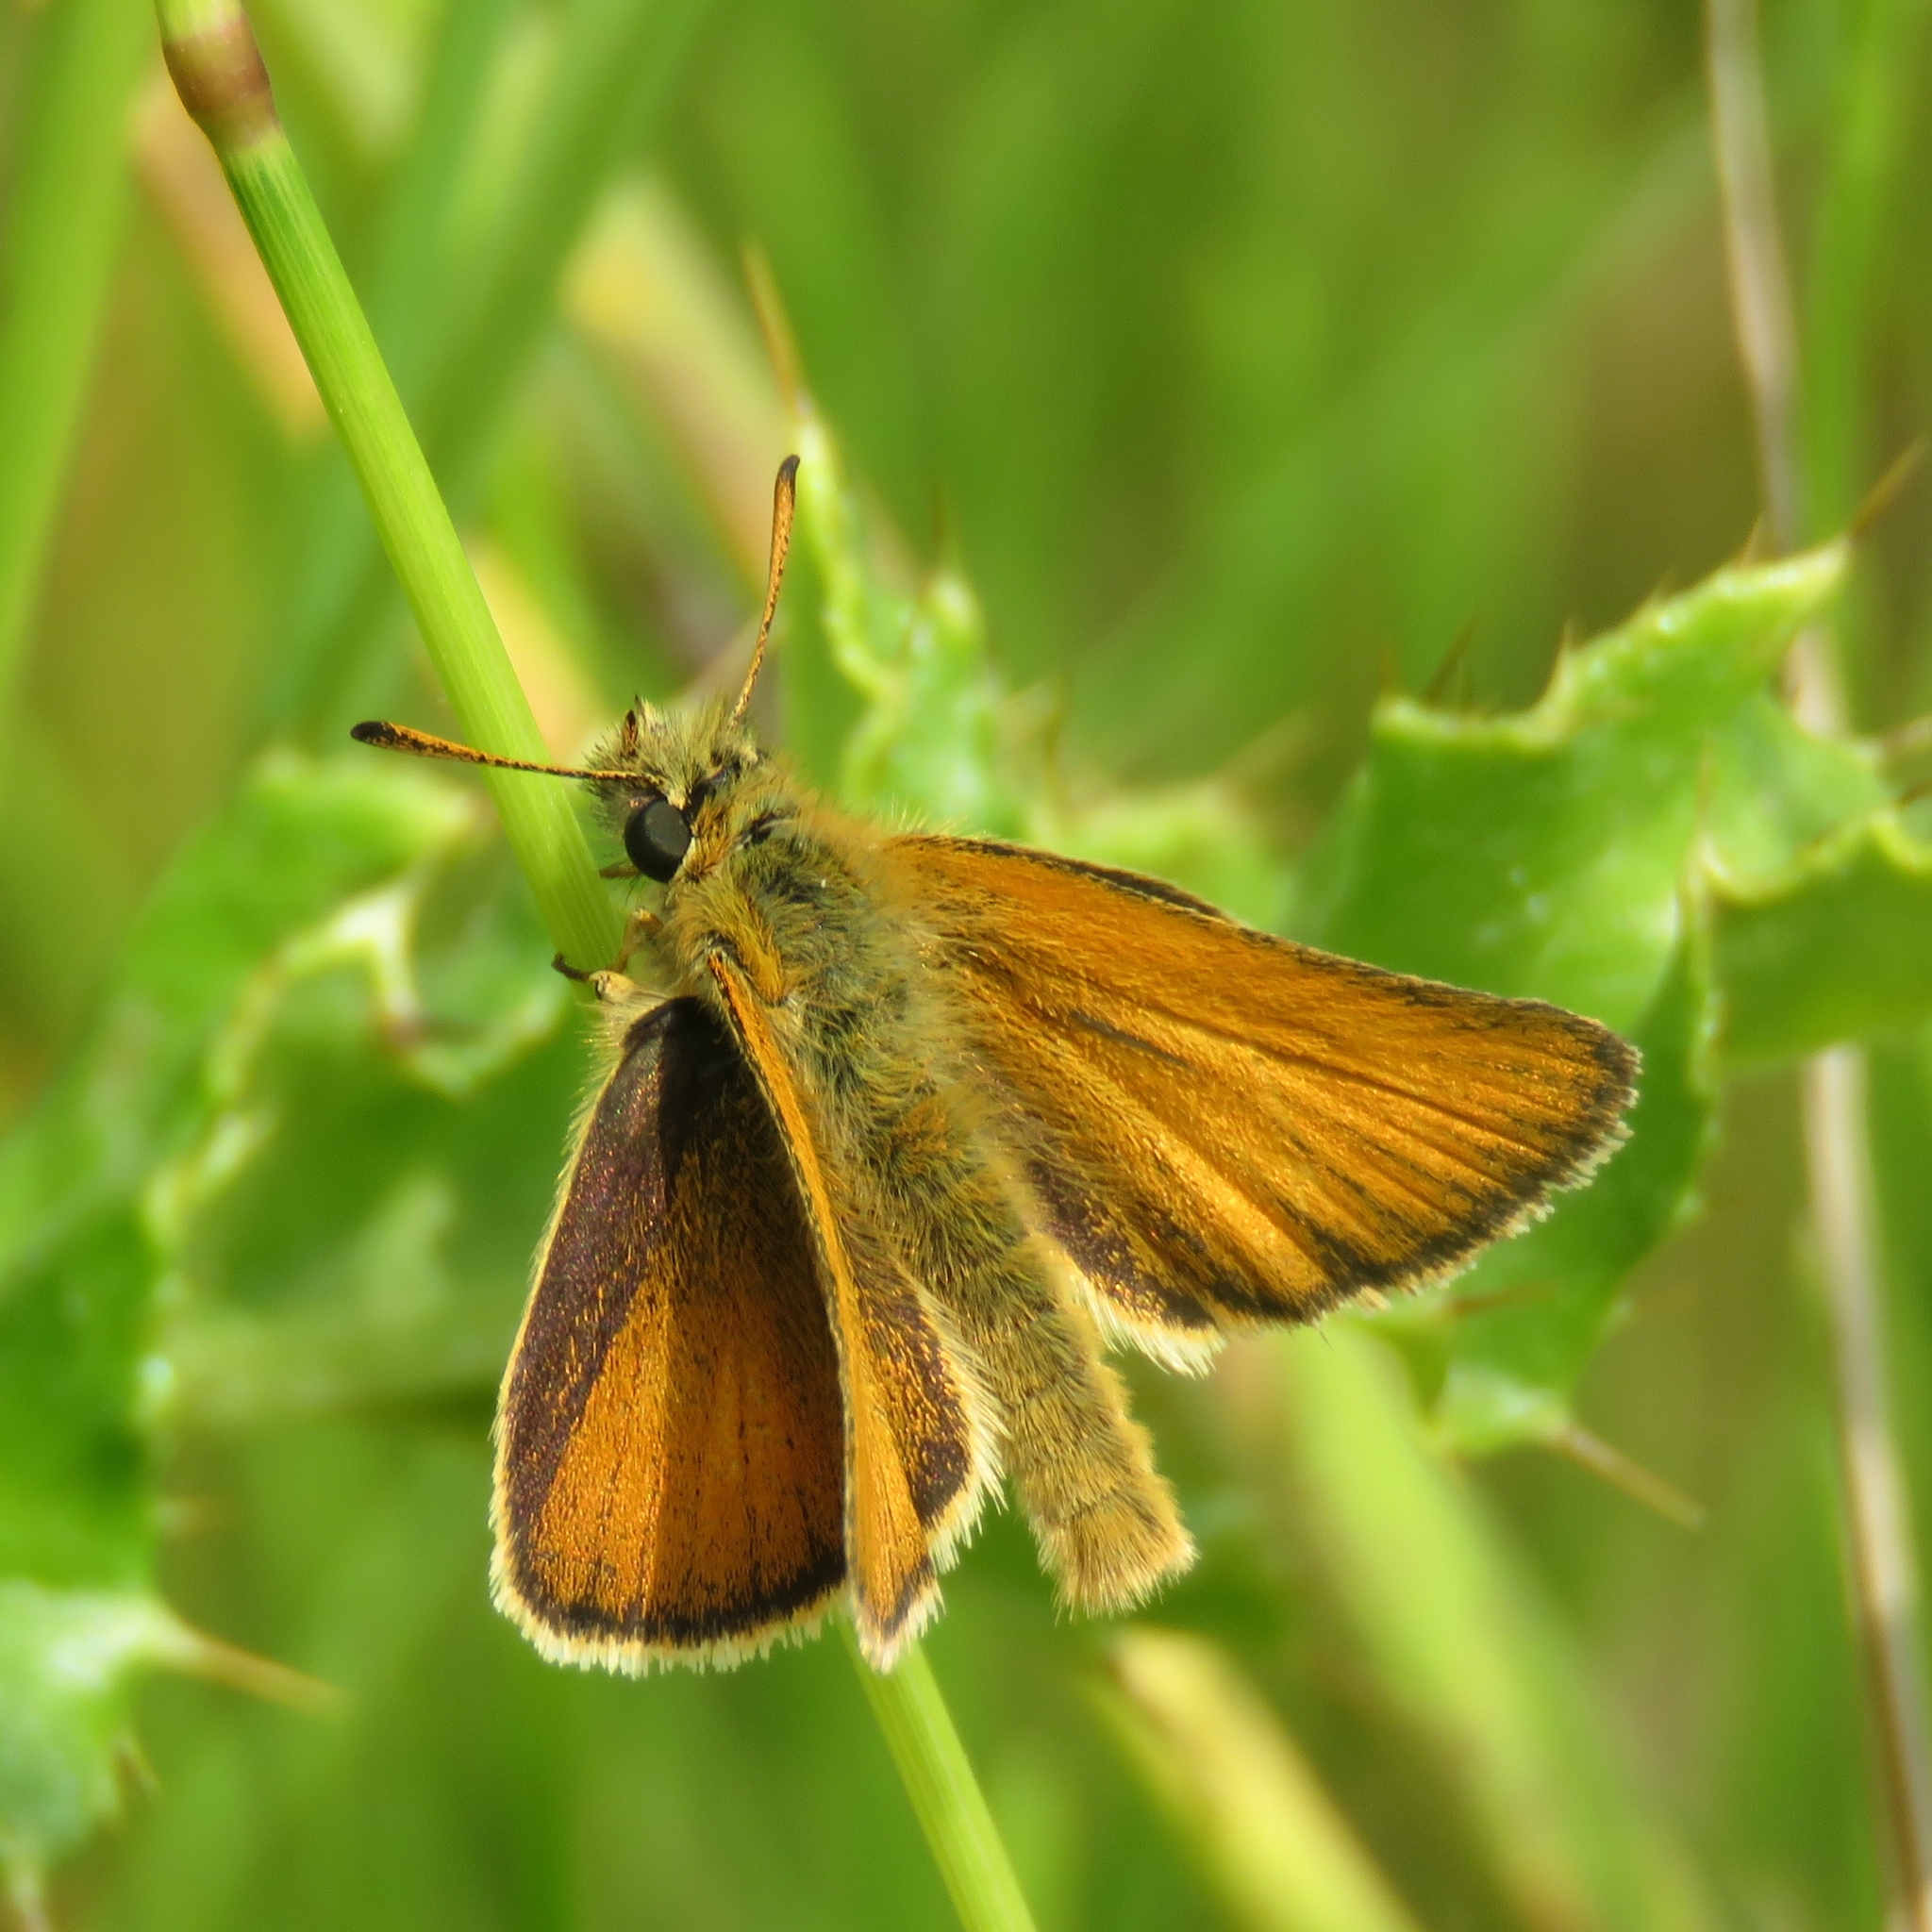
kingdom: Animalia
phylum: Arthropoda
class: Insecta
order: Lepidoptera
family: Hesperiidae
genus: Thymelicus
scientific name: Thymelicus lineola
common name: Essex skipper
